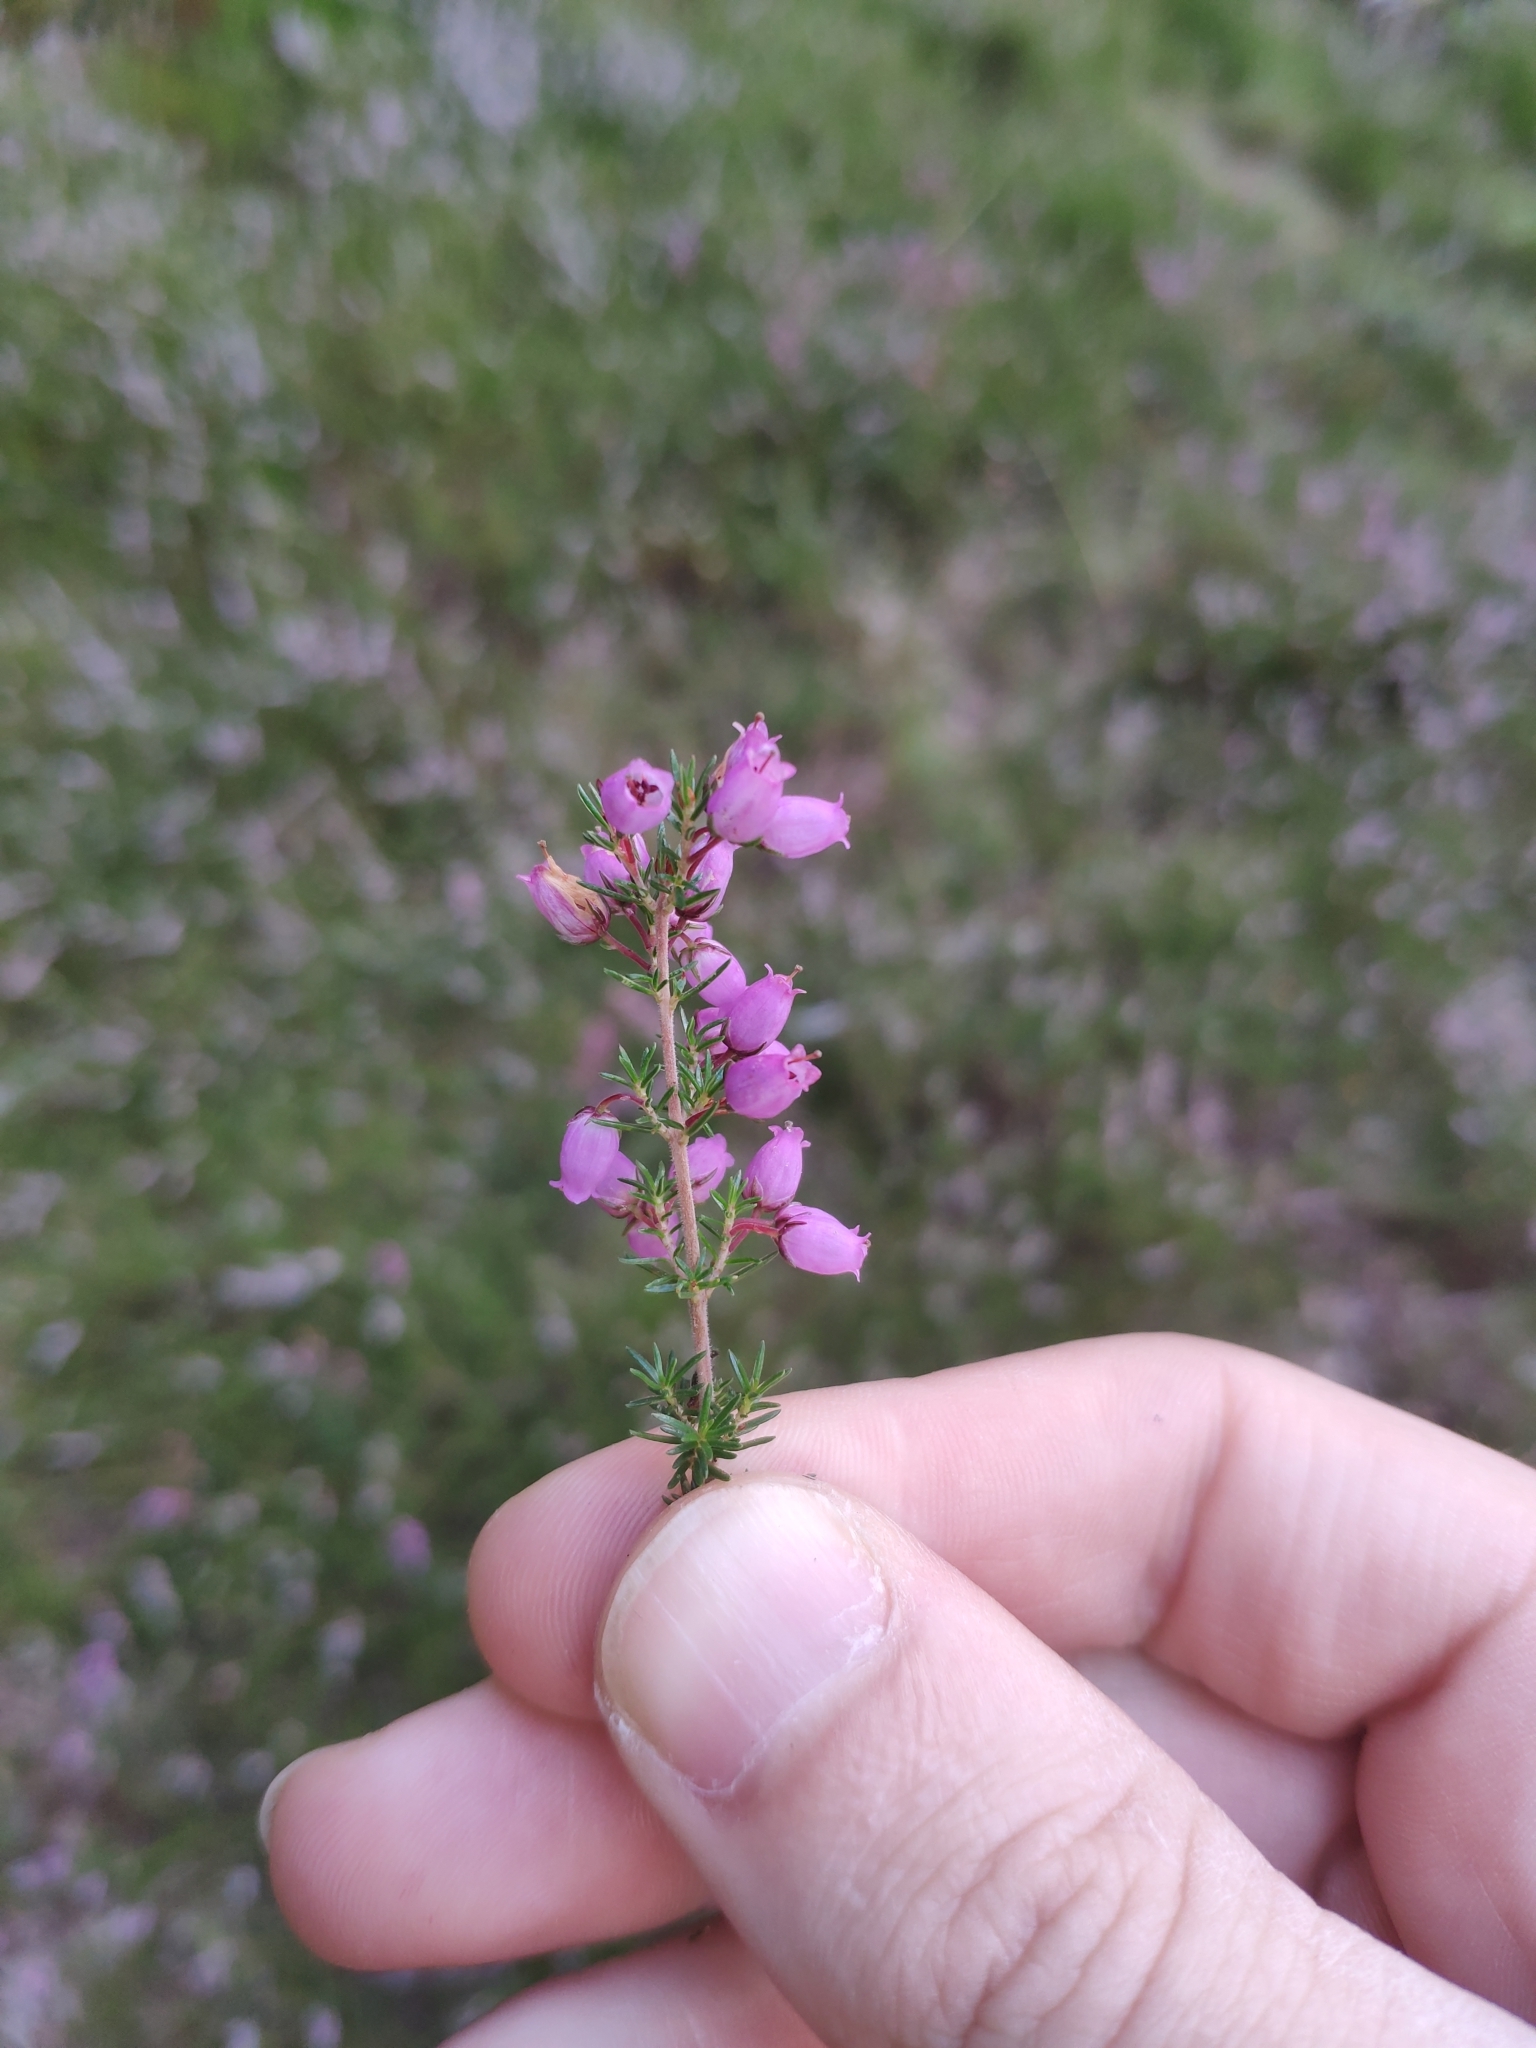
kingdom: Plantae
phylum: Tracheophyta
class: Magnoliopsida
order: Ericales
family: Ericaceae
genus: Erica
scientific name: Erica cinerea
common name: Bell heather
